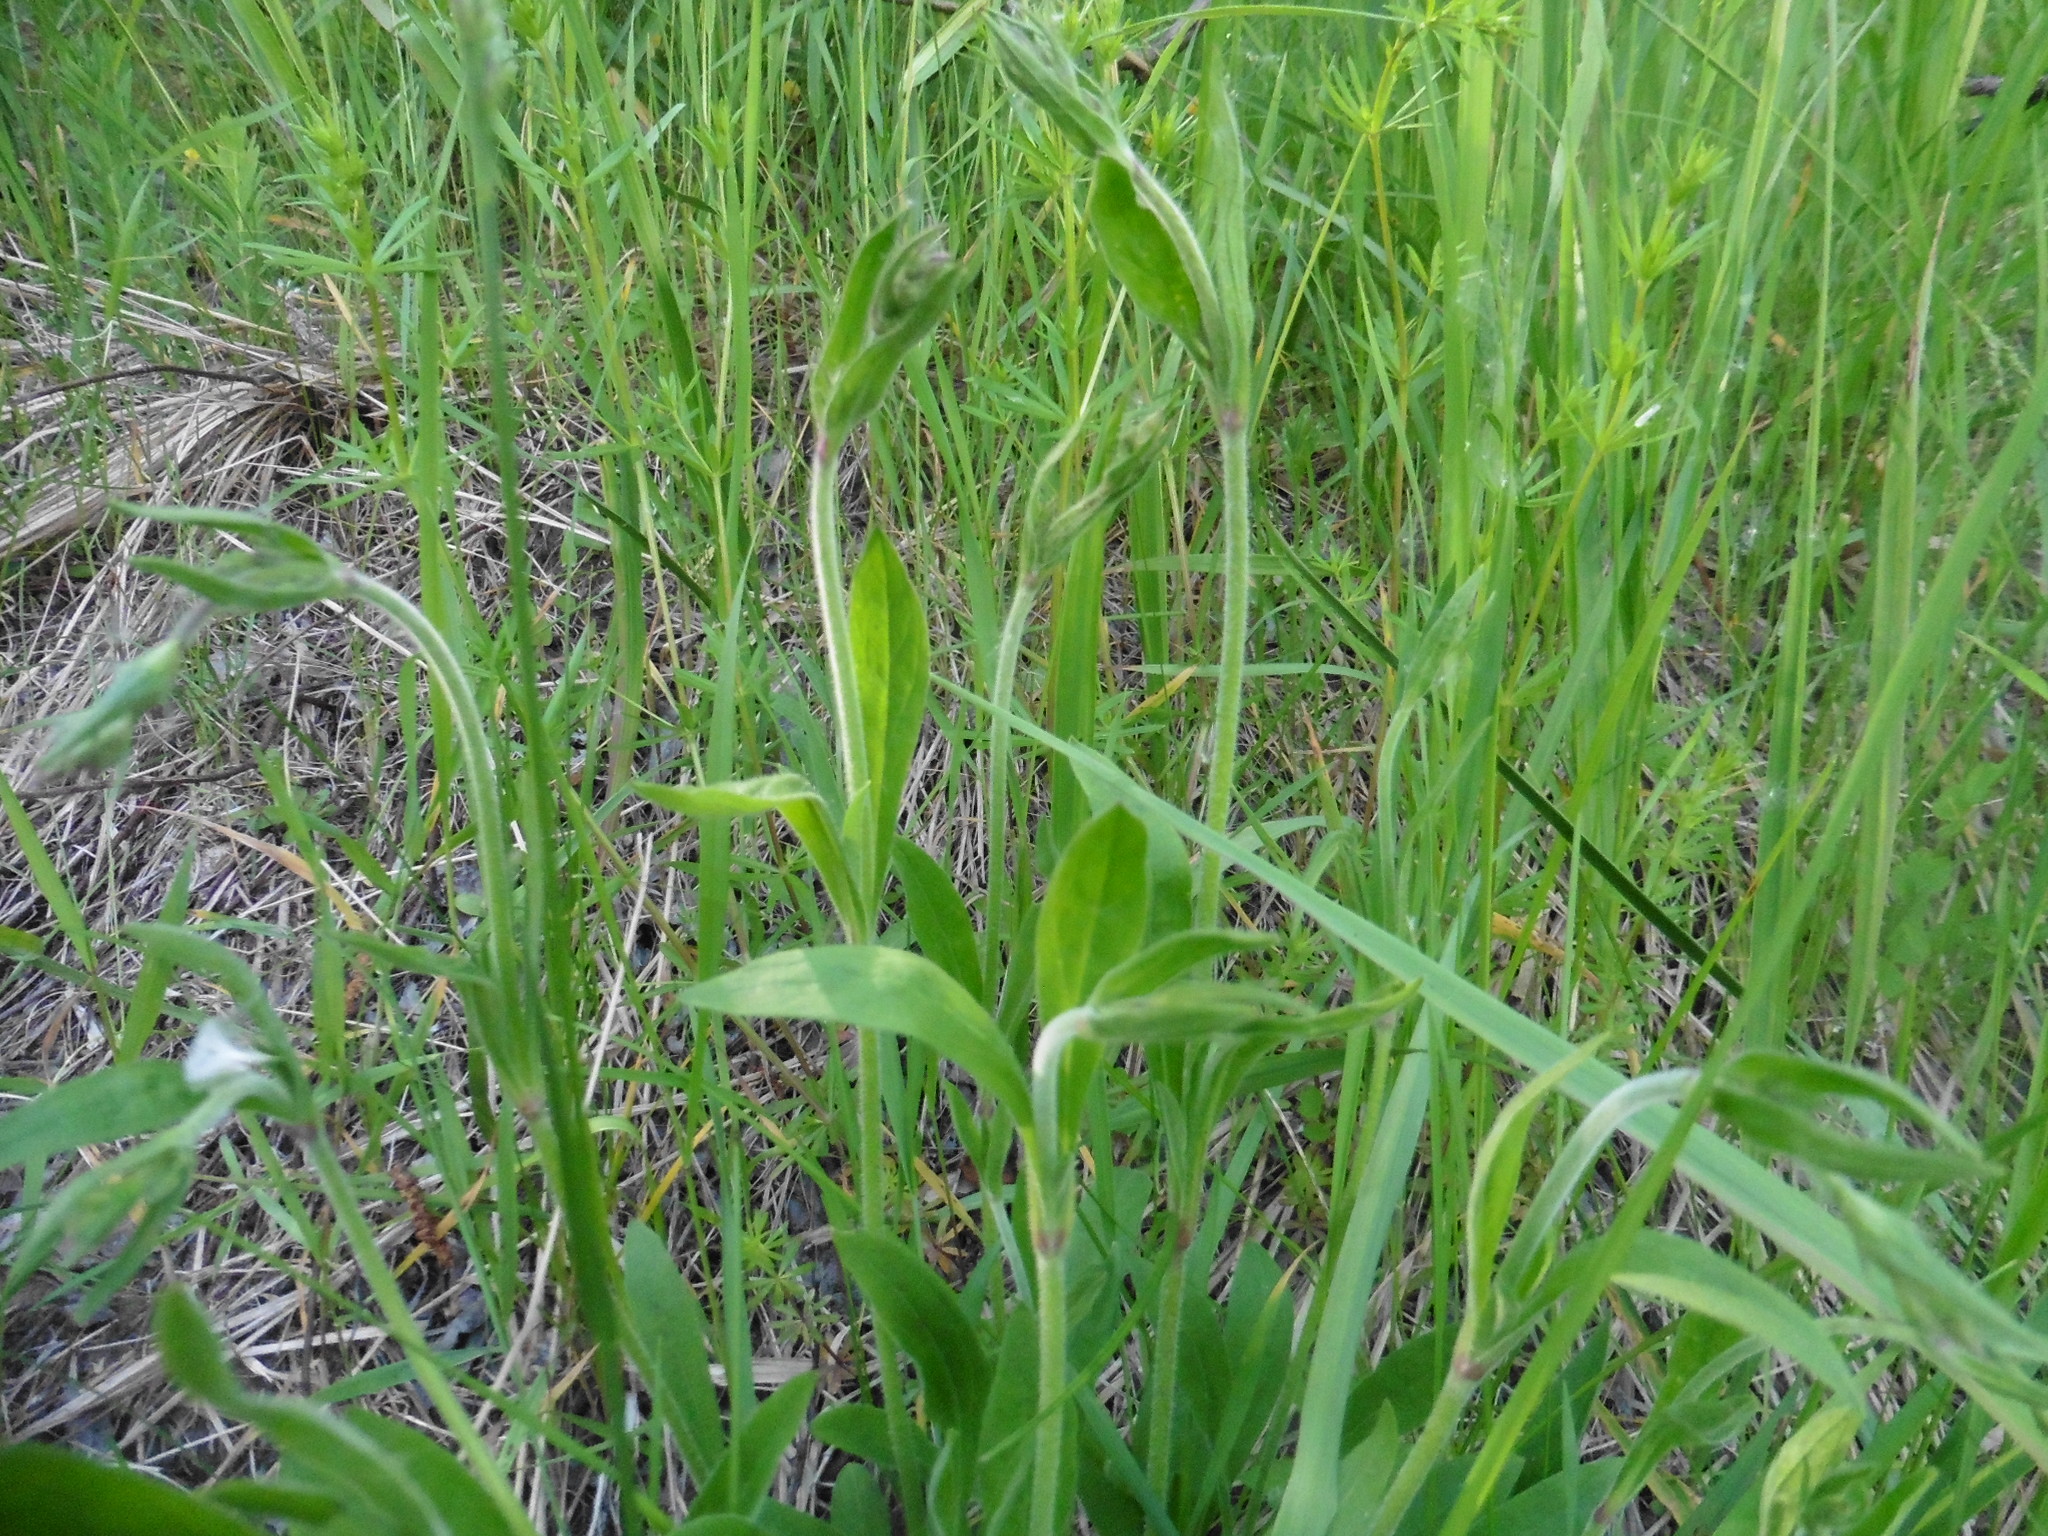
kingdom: Plantae
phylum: Tracheophyta
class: Magnoliopsida
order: Caryophyllales
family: Caryophyllaceae
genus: Silene
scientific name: Silene nutans
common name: Nottingham catchfly
